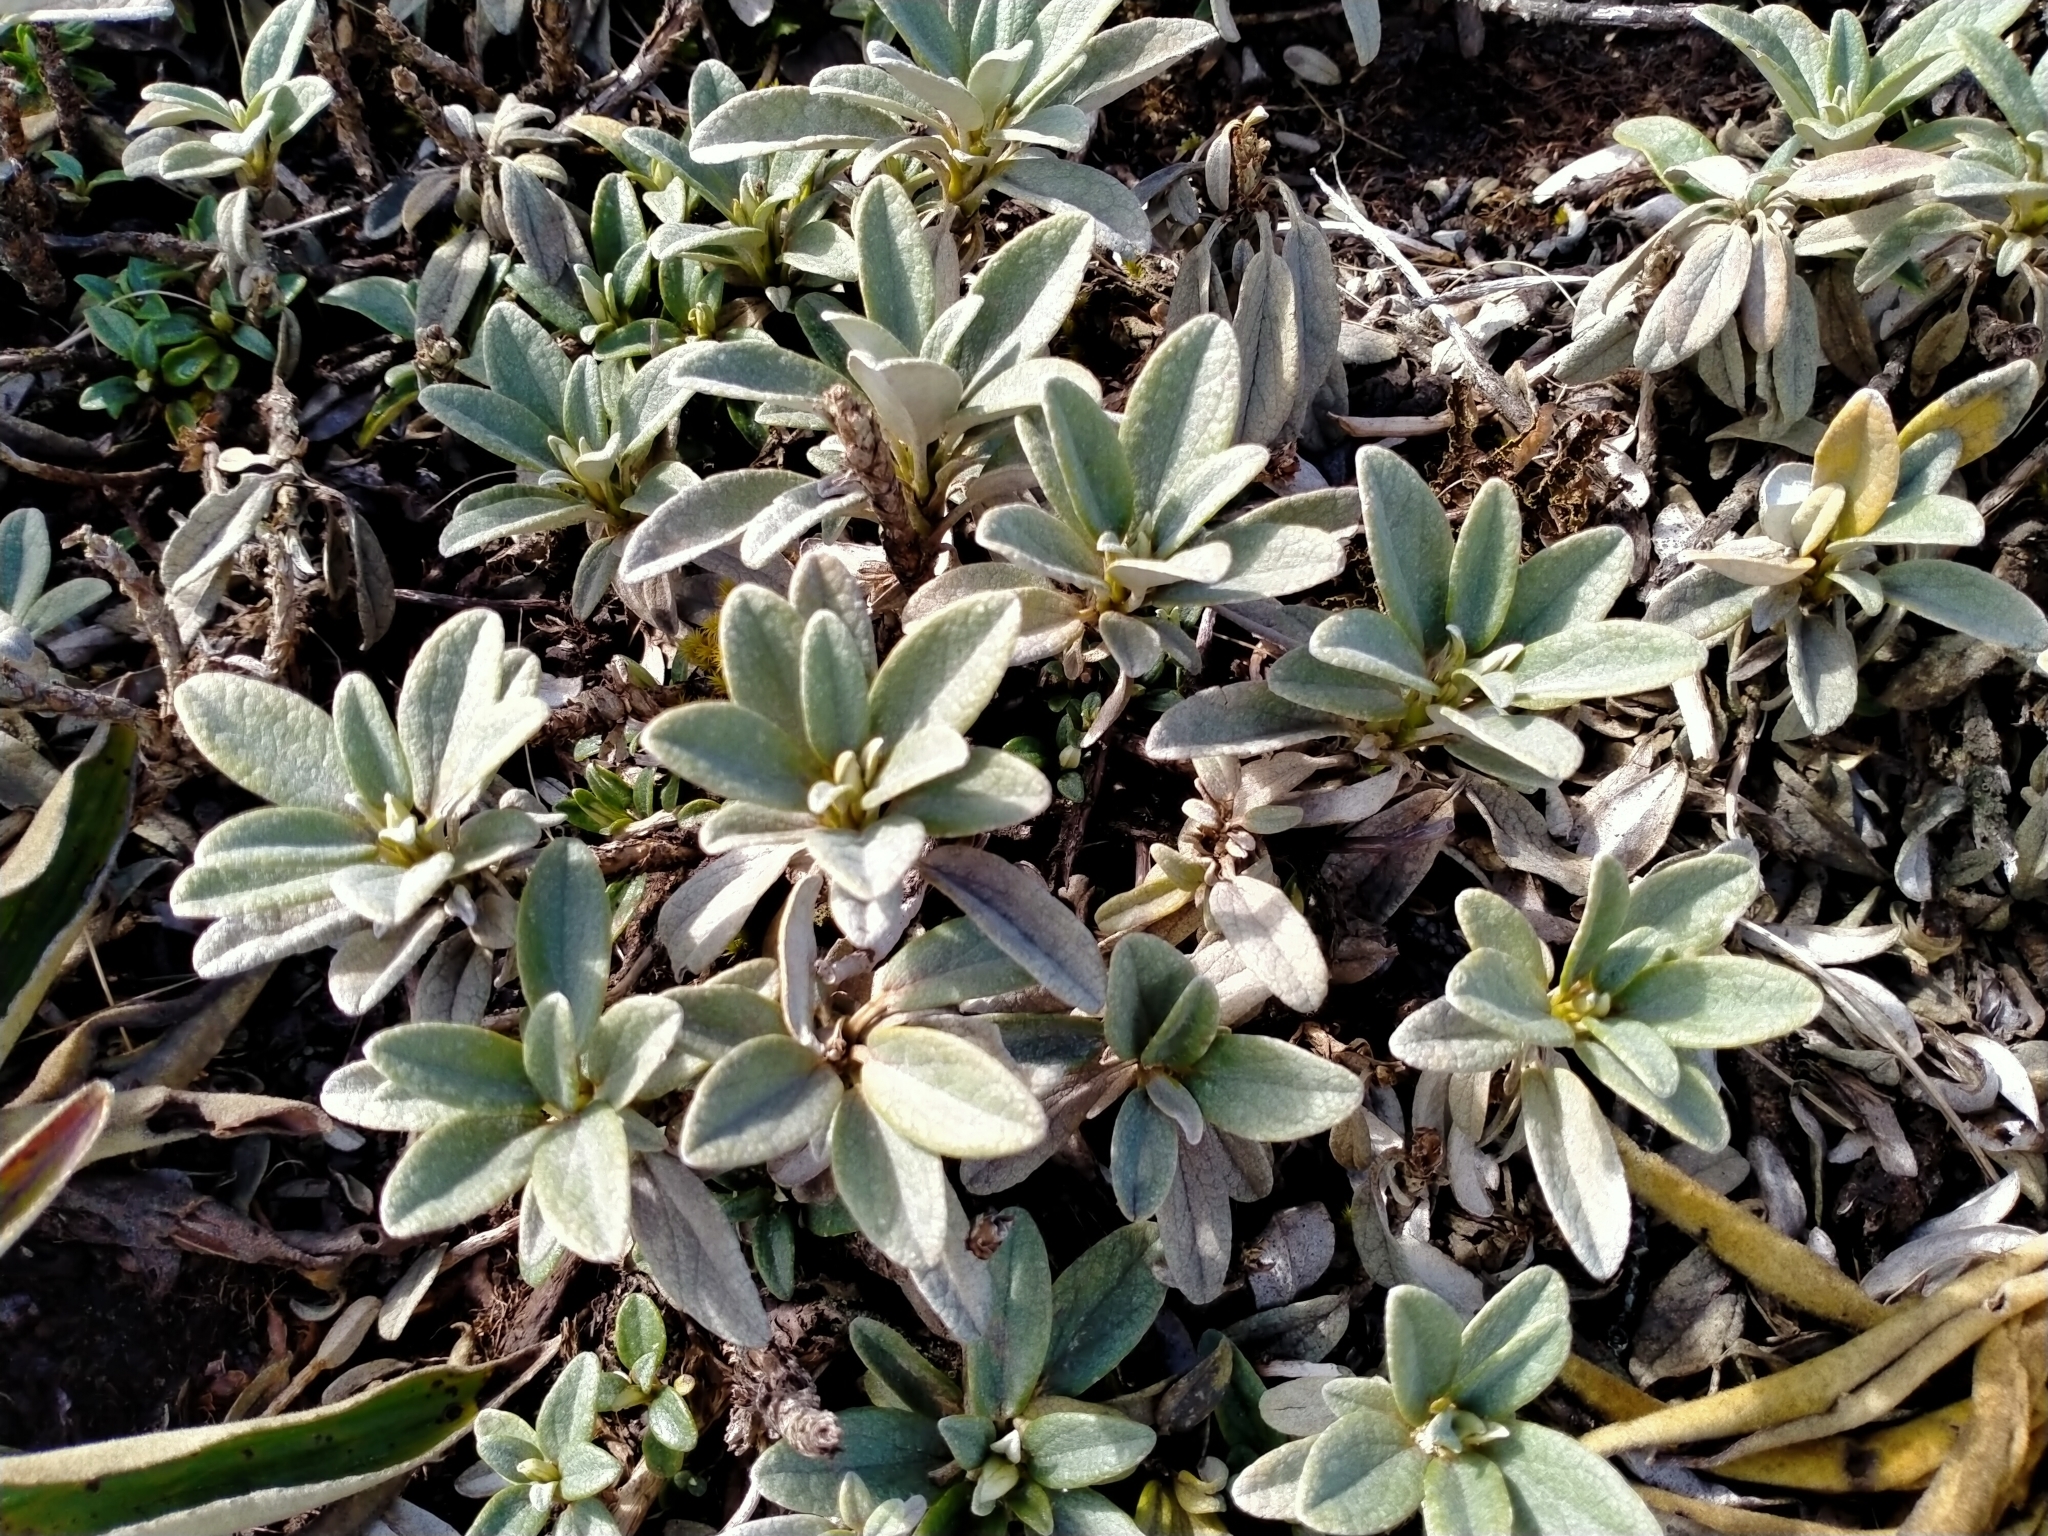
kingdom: Plantae
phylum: Tracheophyta
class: Magnoliopsida
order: Asterales
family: Asteraceae
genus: Brachyglottis
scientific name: Brachyglottis revoluta
